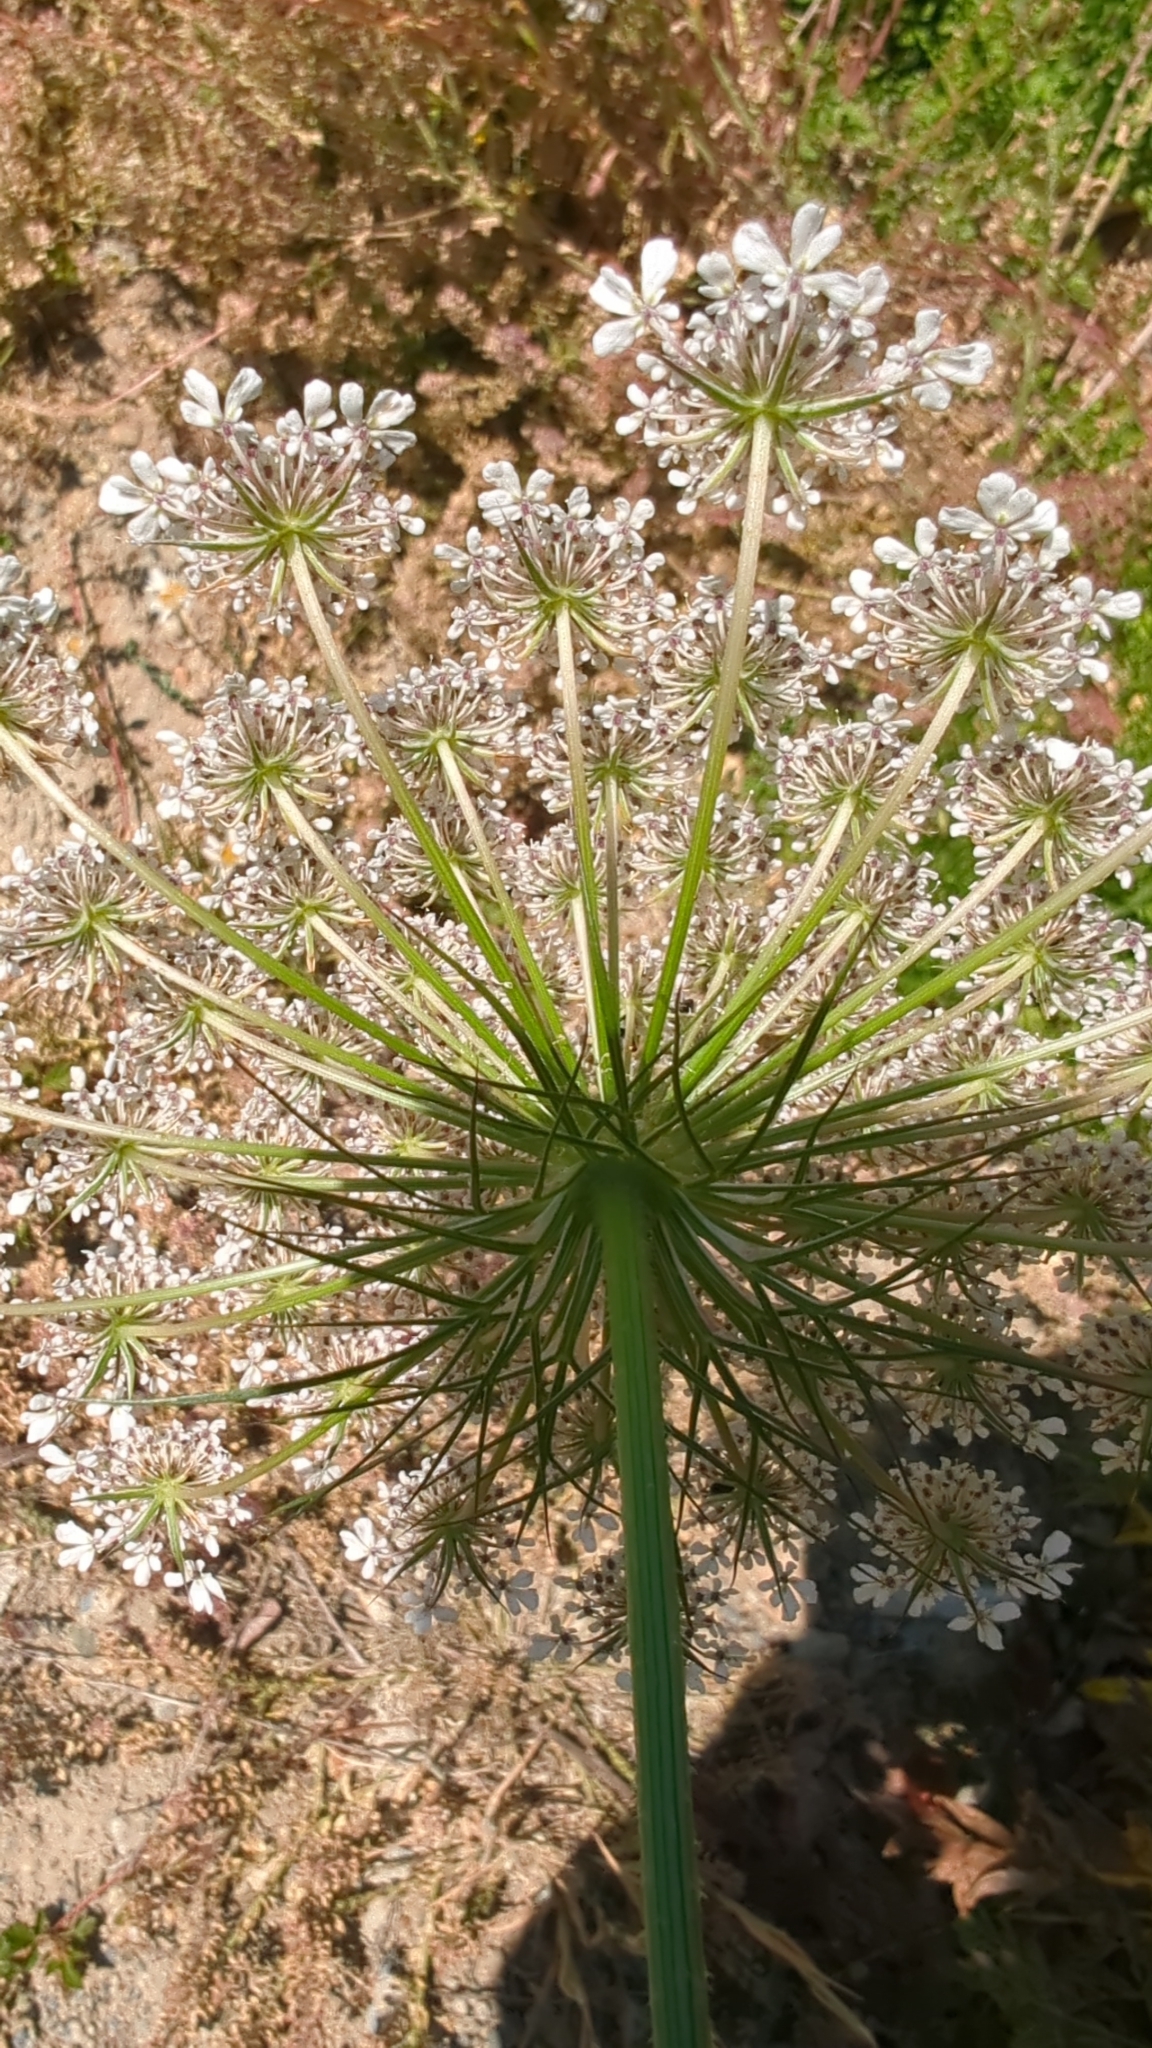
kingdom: Plantae
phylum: Tracheophyta
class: Magnoliopsida
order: Apiales
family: Apiaceae
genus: Daucus
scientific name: Daucus carota
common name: Wild carrot
